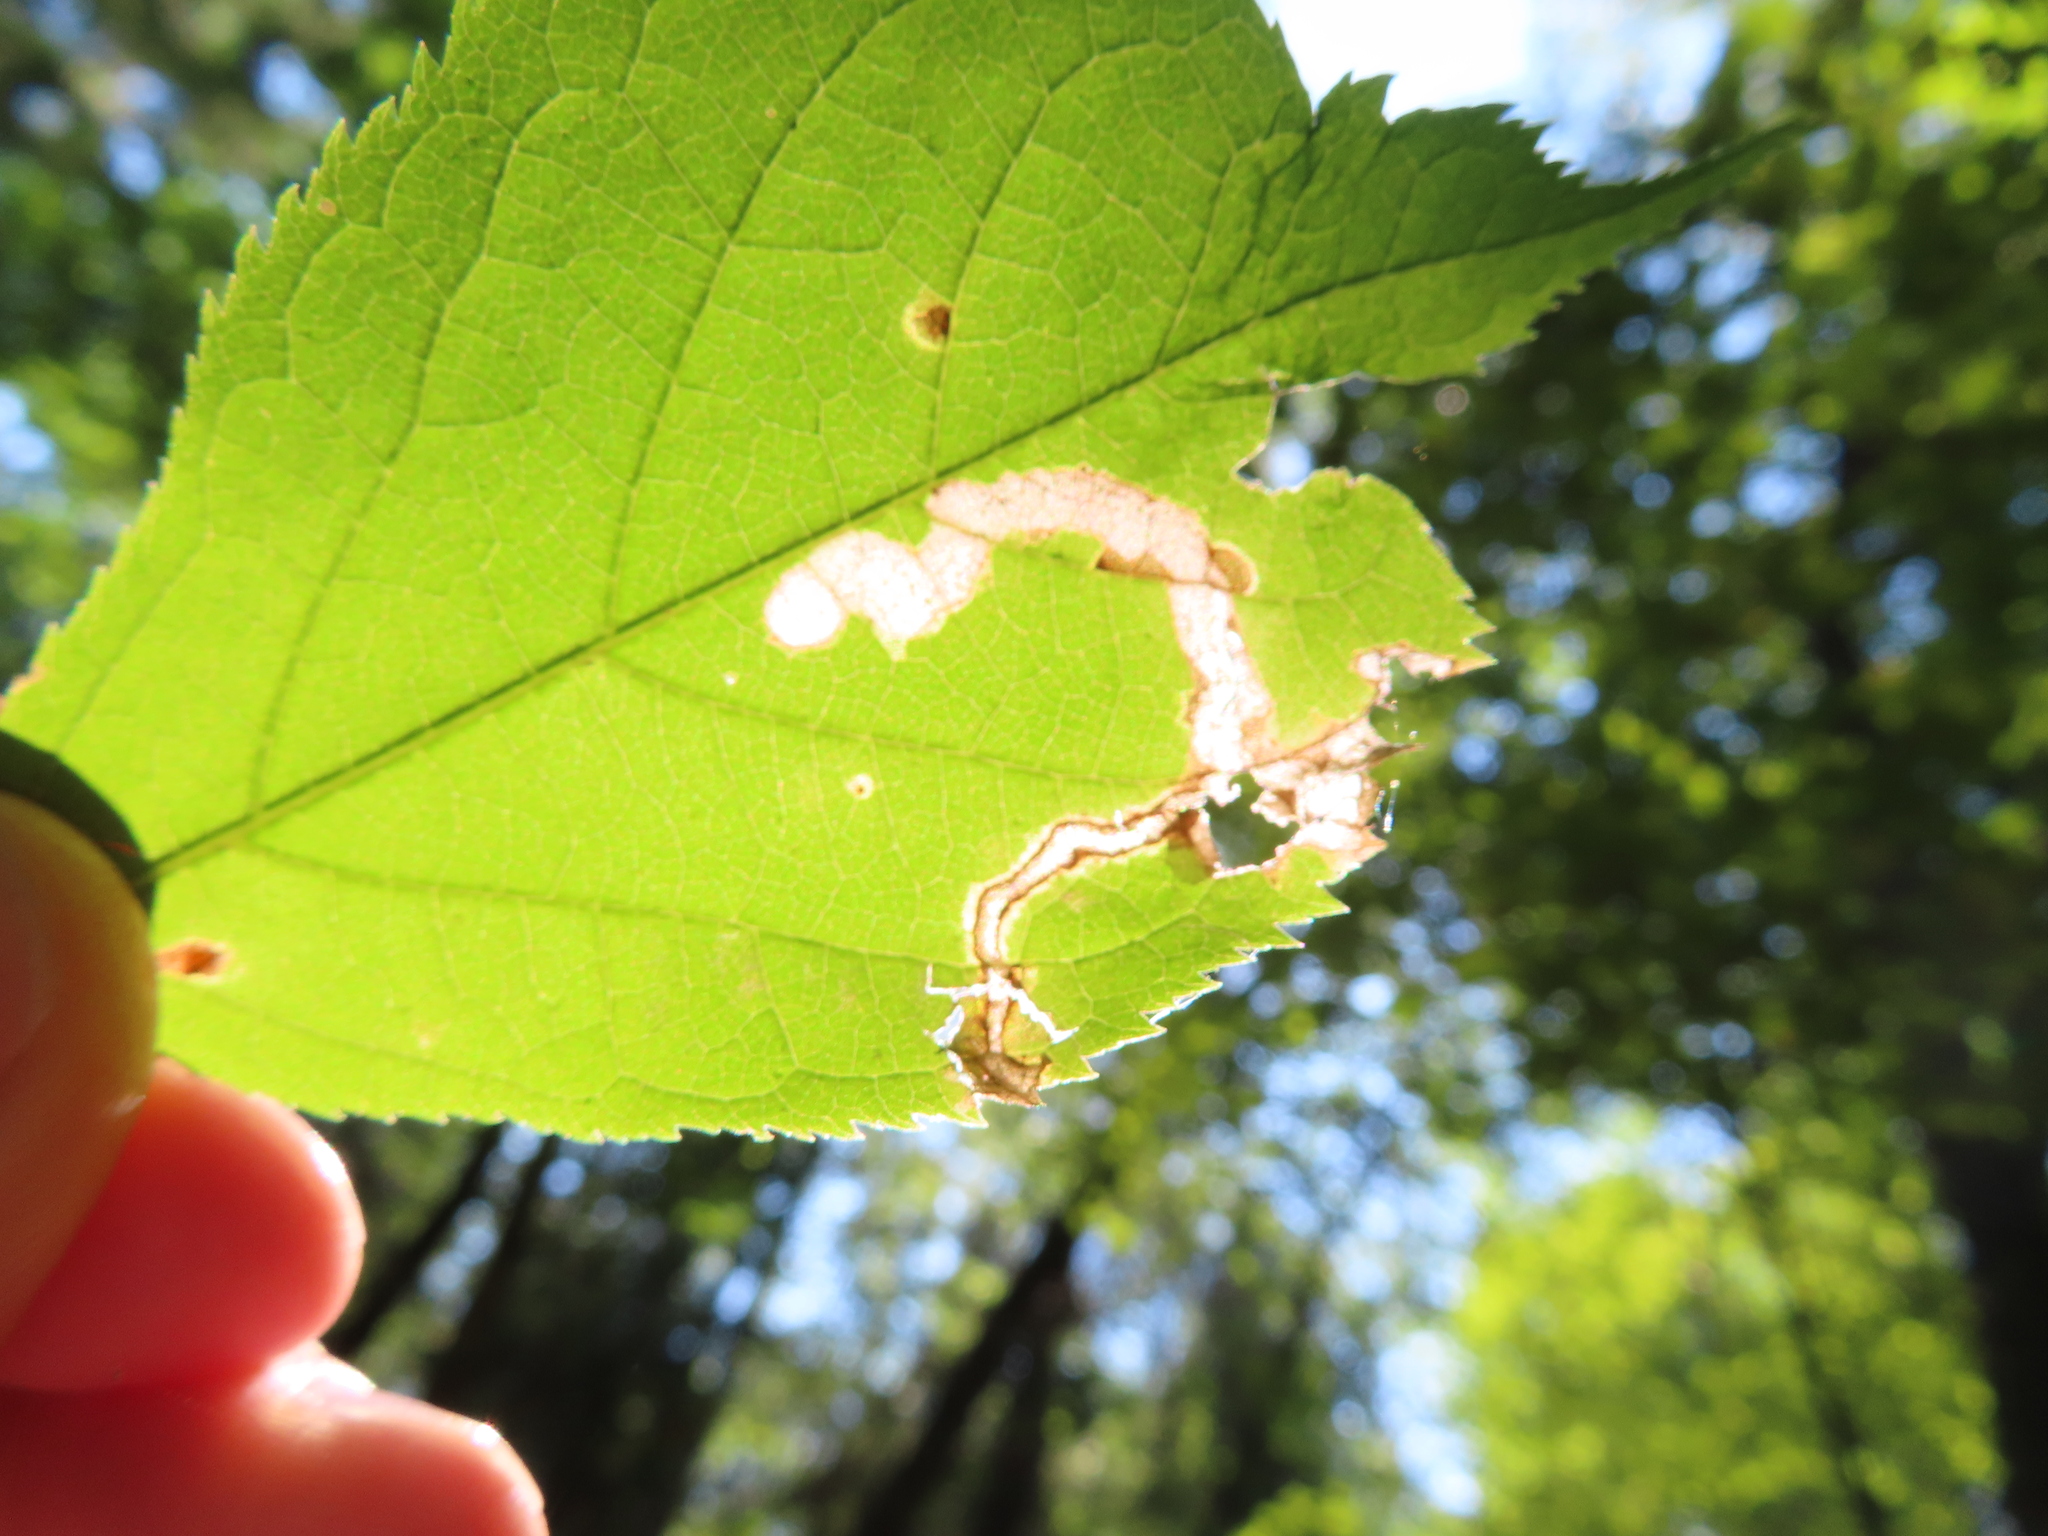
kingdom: Animalia
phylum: Arthropoda
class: Insecta
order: Diptera
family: Agromyzidae
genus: Phytomyza
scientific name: Phytomyza aralivora
